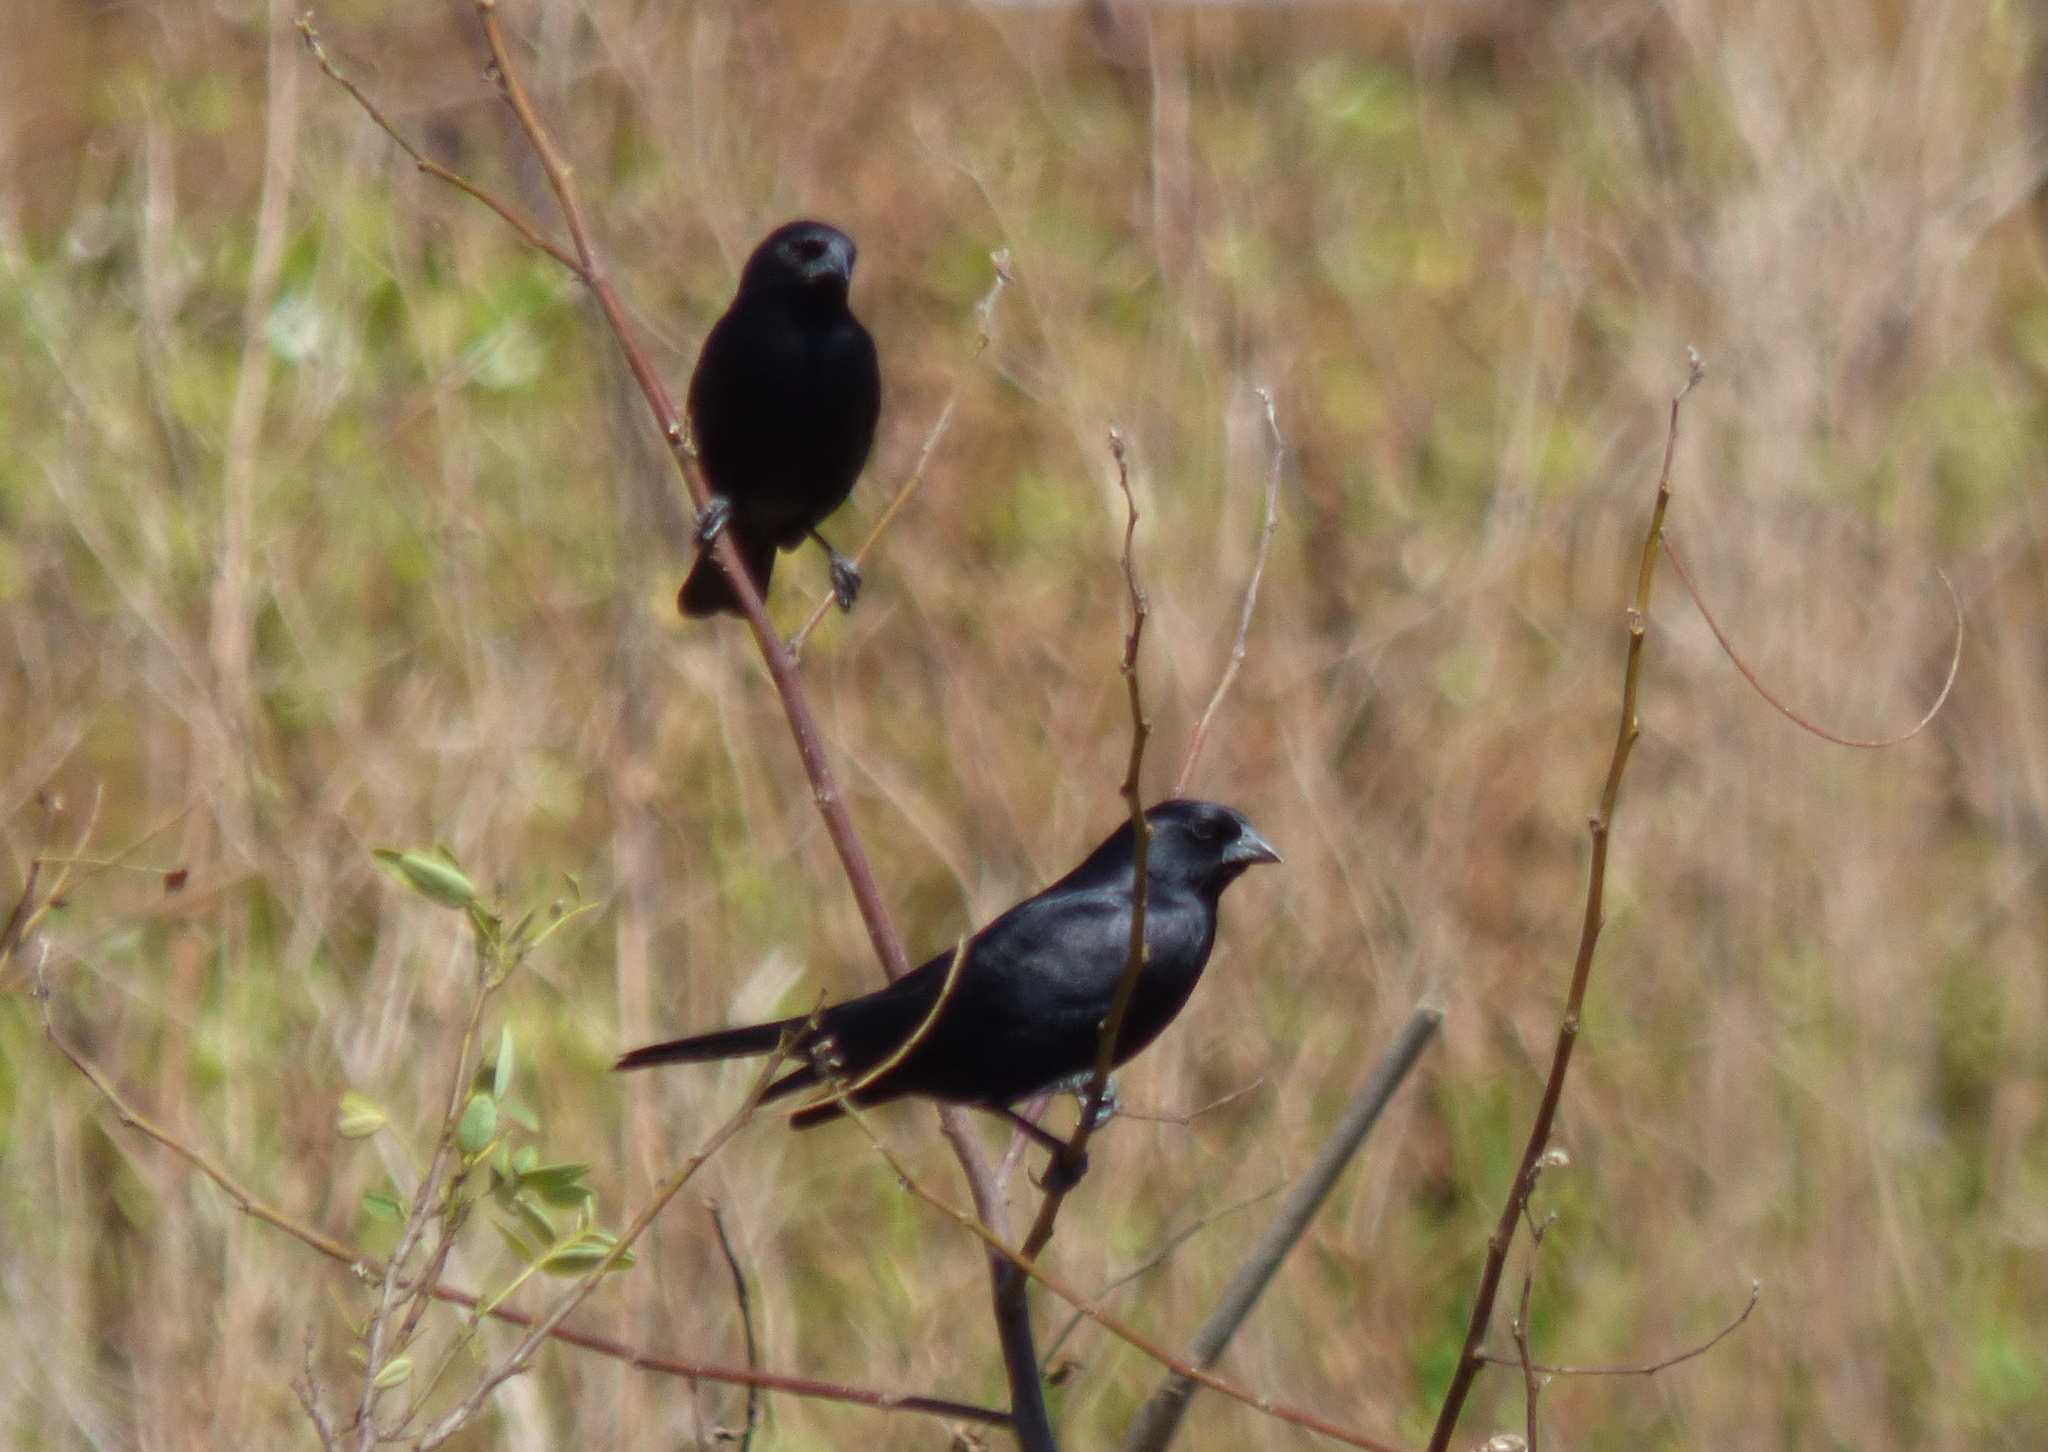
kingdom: Animalia
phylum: Chordata
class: Aves
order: Passeriformes
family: Icteridae
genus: Molothrus
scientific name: Molothrus rufoaxillaris
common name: Screaming cowbird
